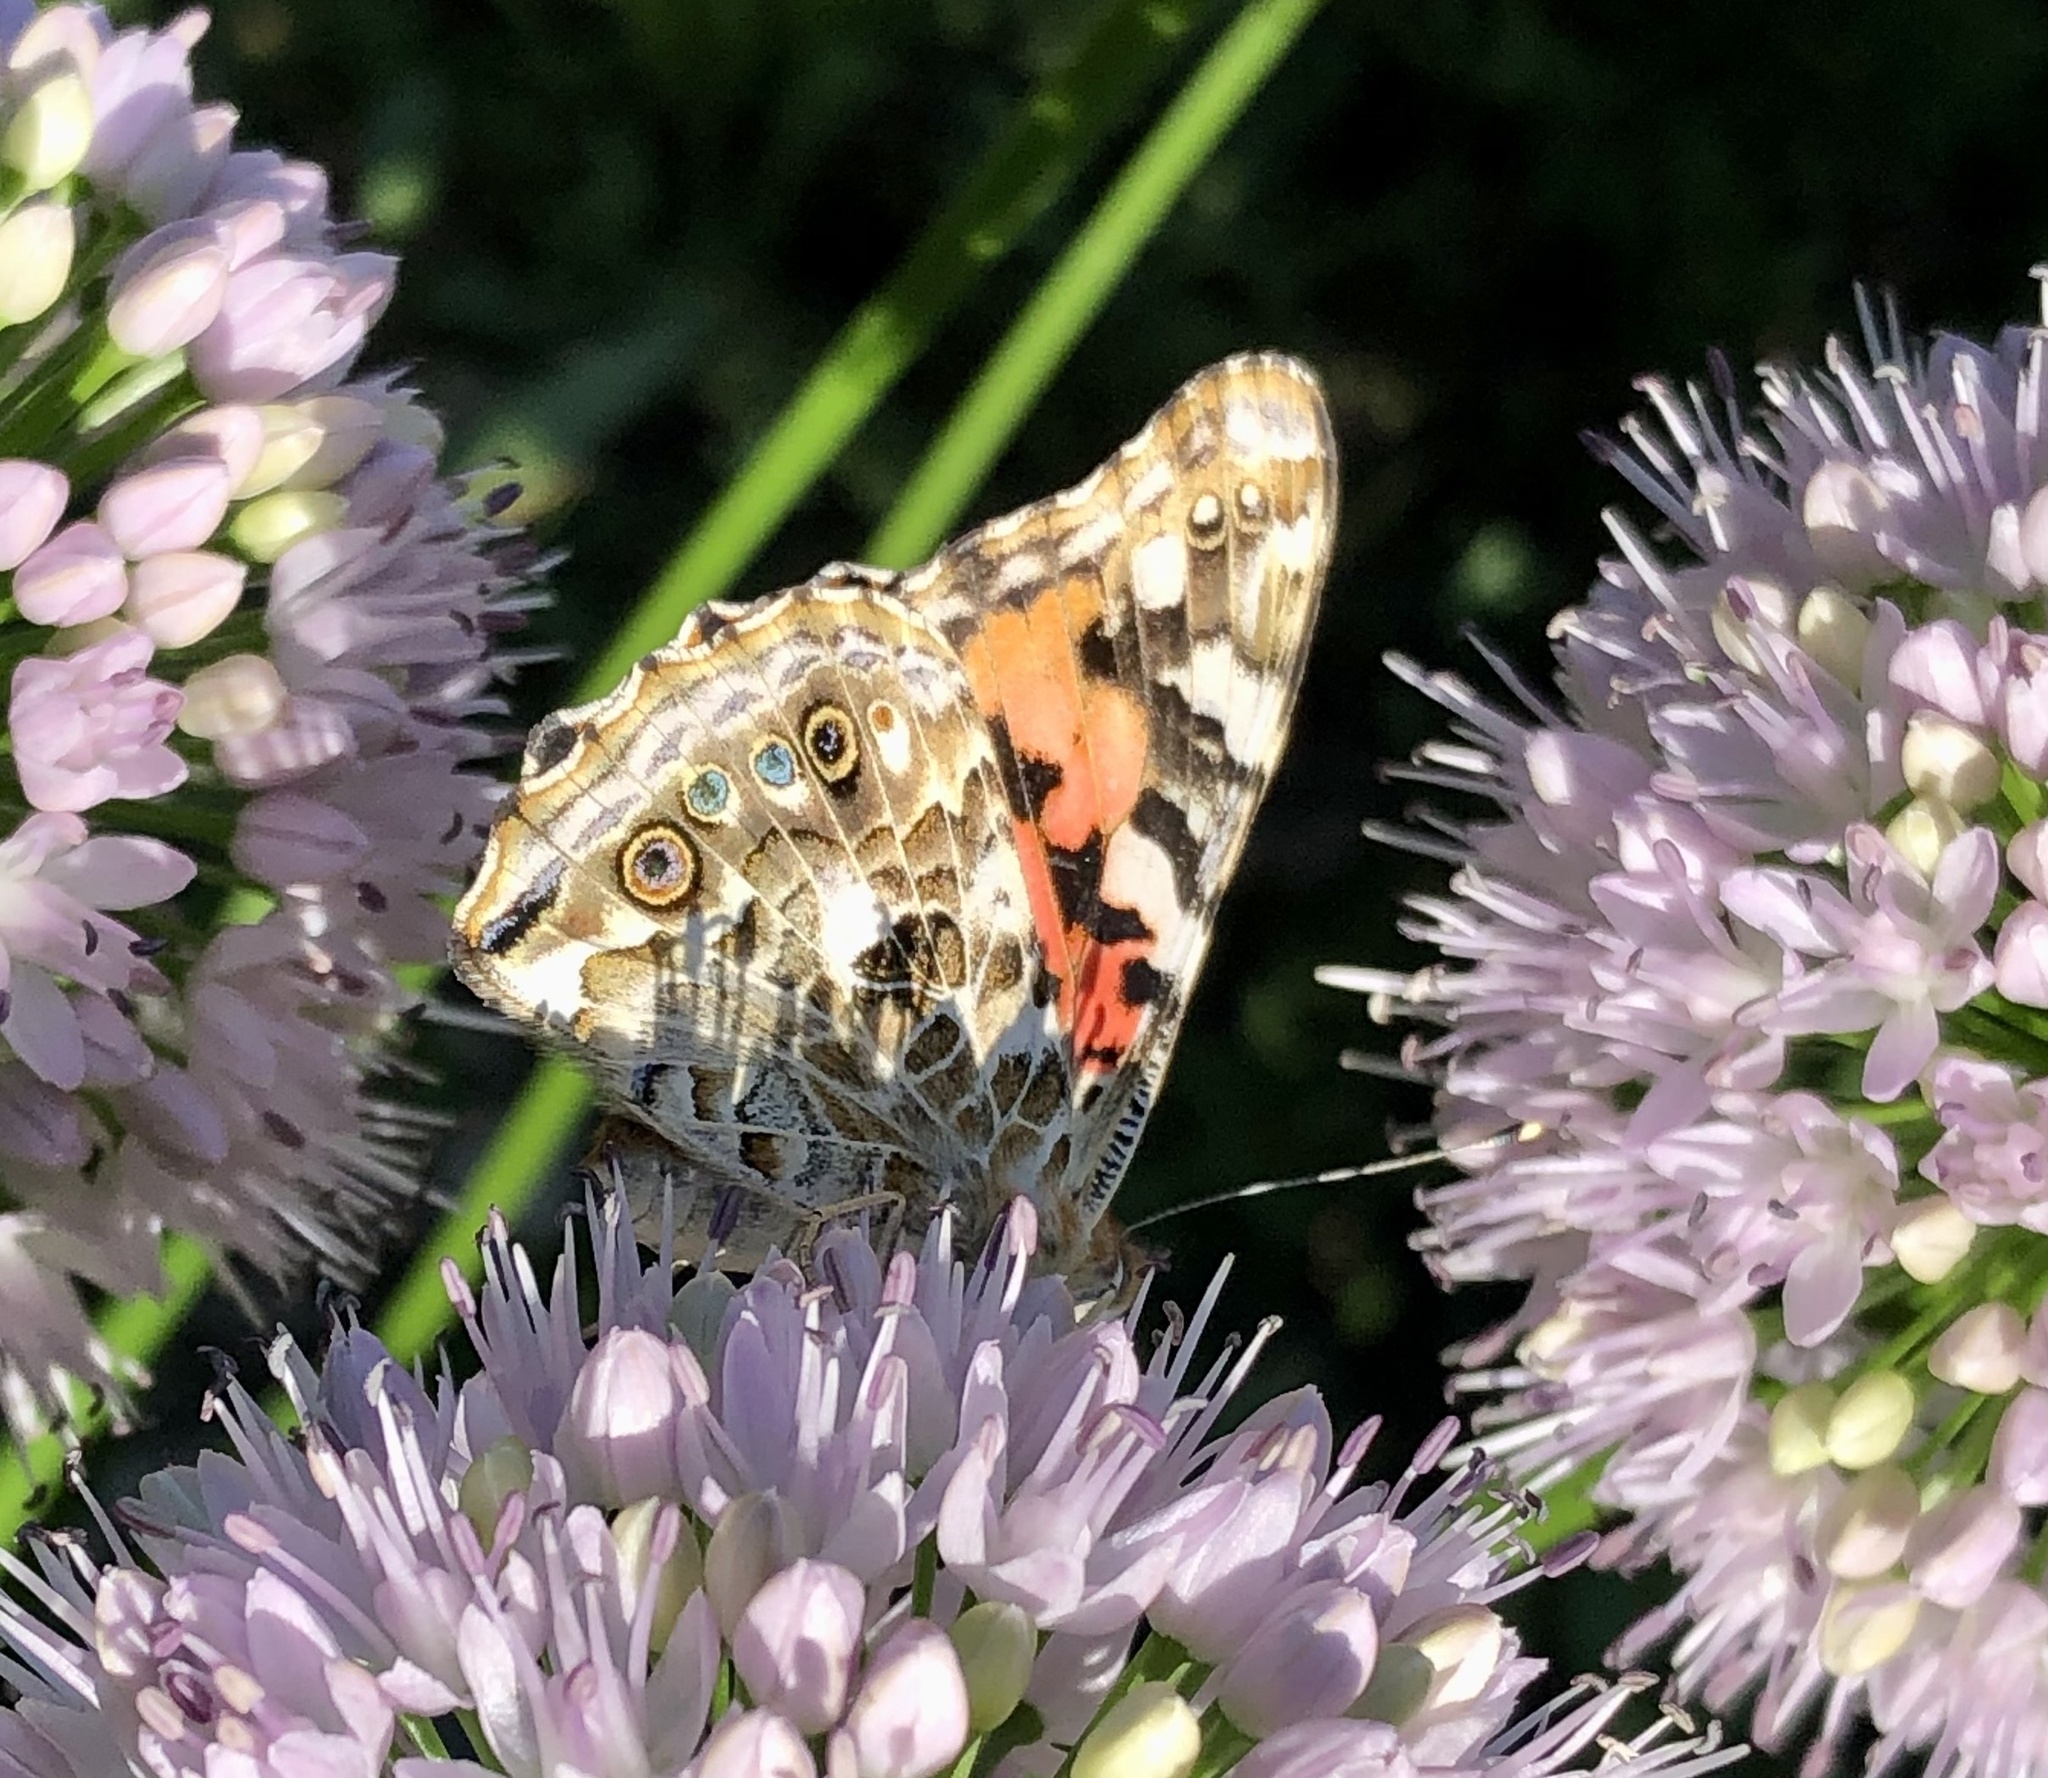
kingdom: Animalia
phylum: Arthropoda
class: Insecta
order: Lepidoptera
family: Nymphalidae
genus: Vanessa
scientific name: Vanessa cardui
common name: Painted lady
